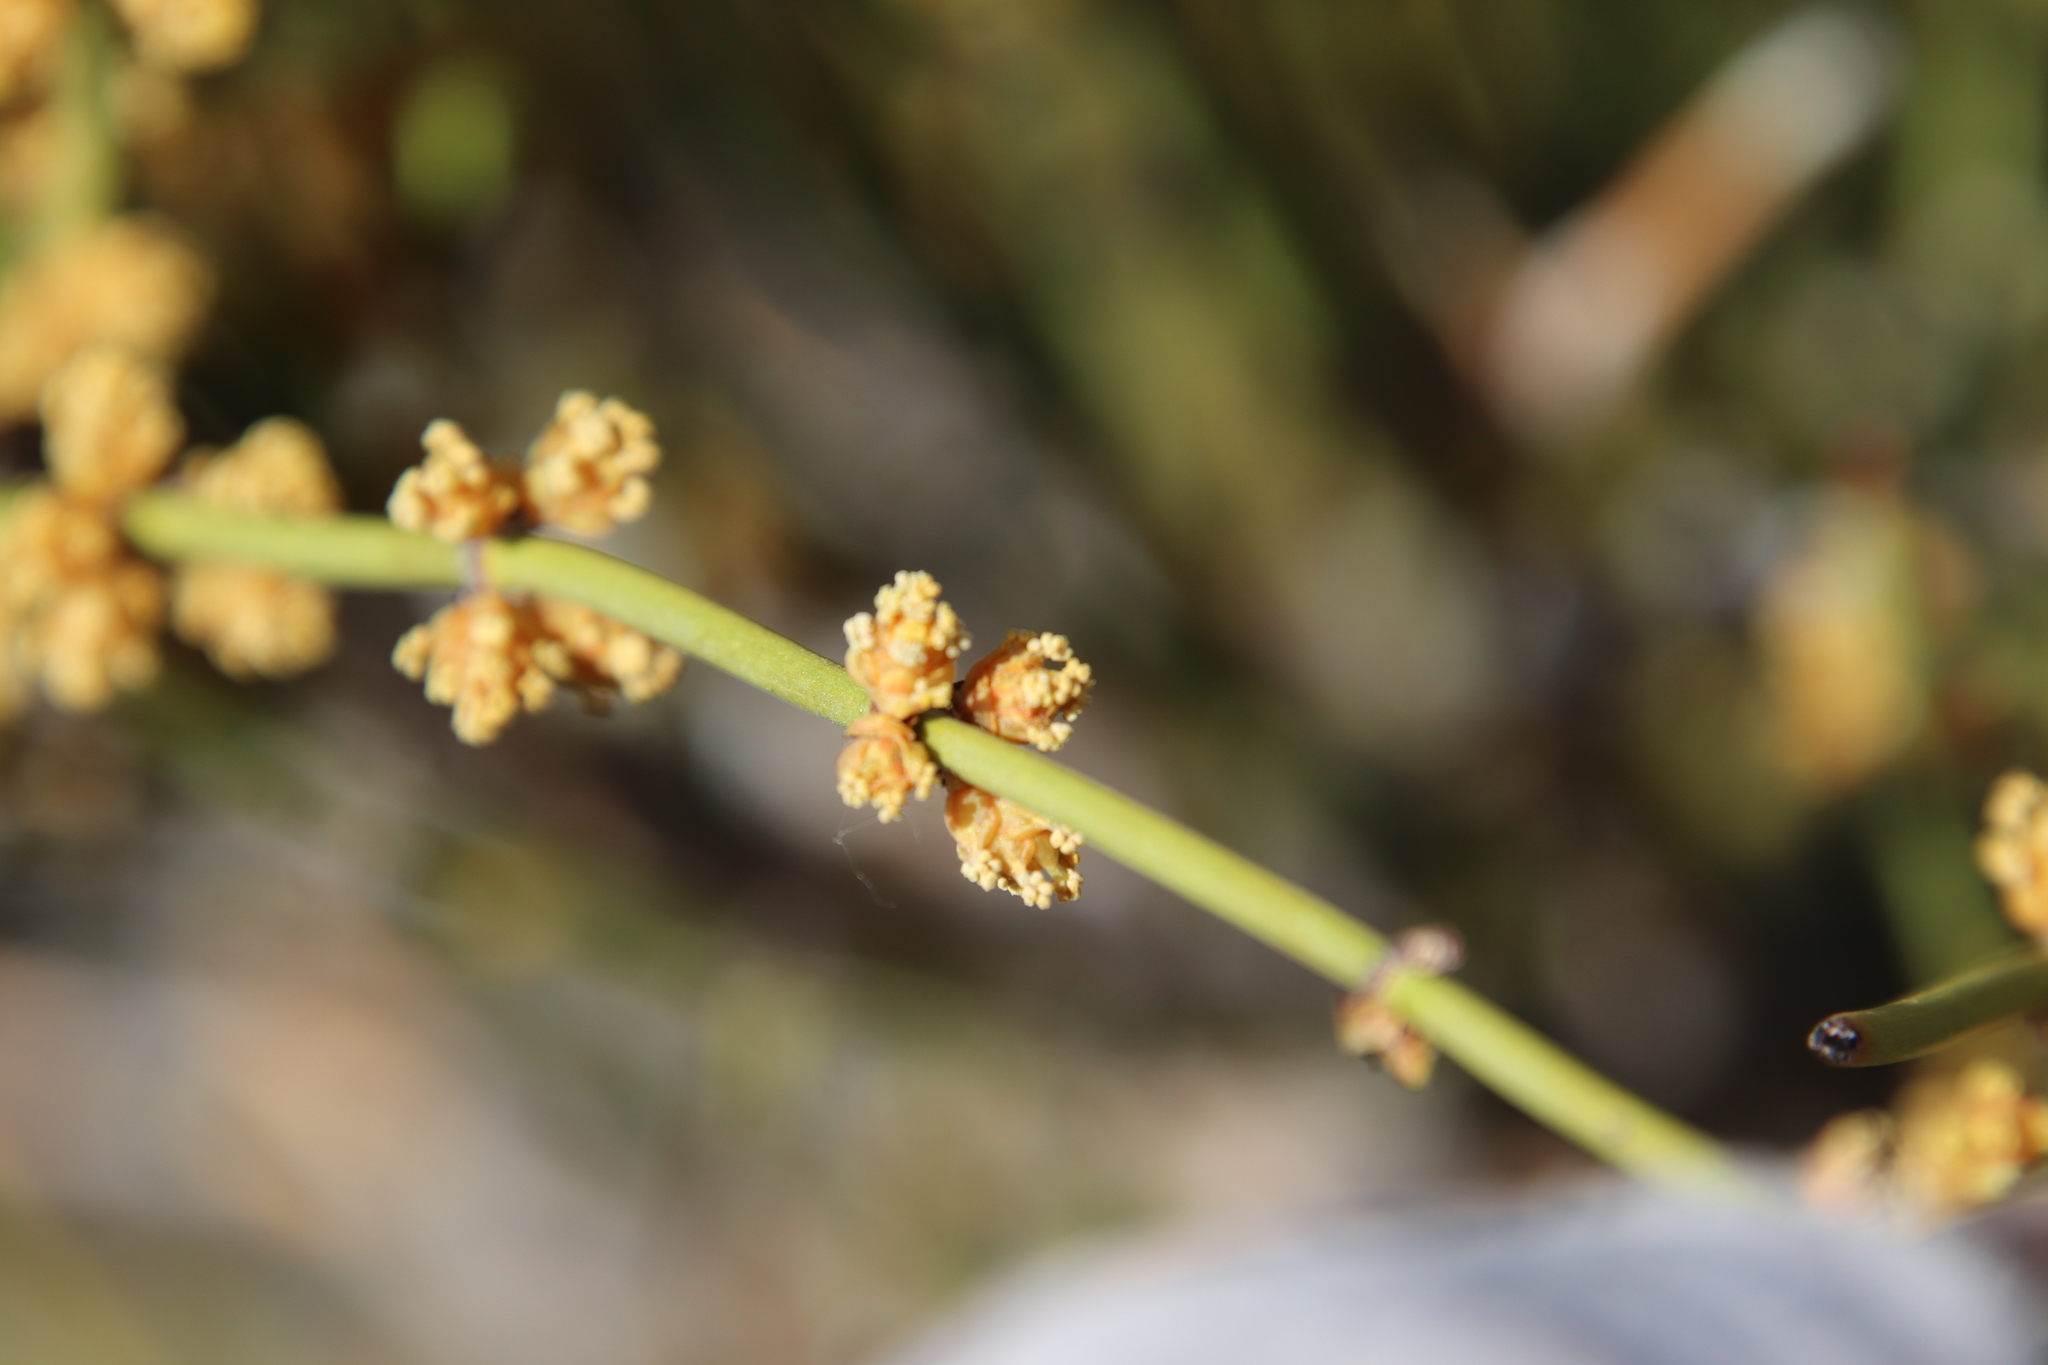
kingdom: Plantae
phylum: Tracheophyta
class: Gnetopsida
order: Ephedrales
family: Ephedraceae
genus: Ephedra
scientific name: Ephedra viridis
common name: Green ephedra
